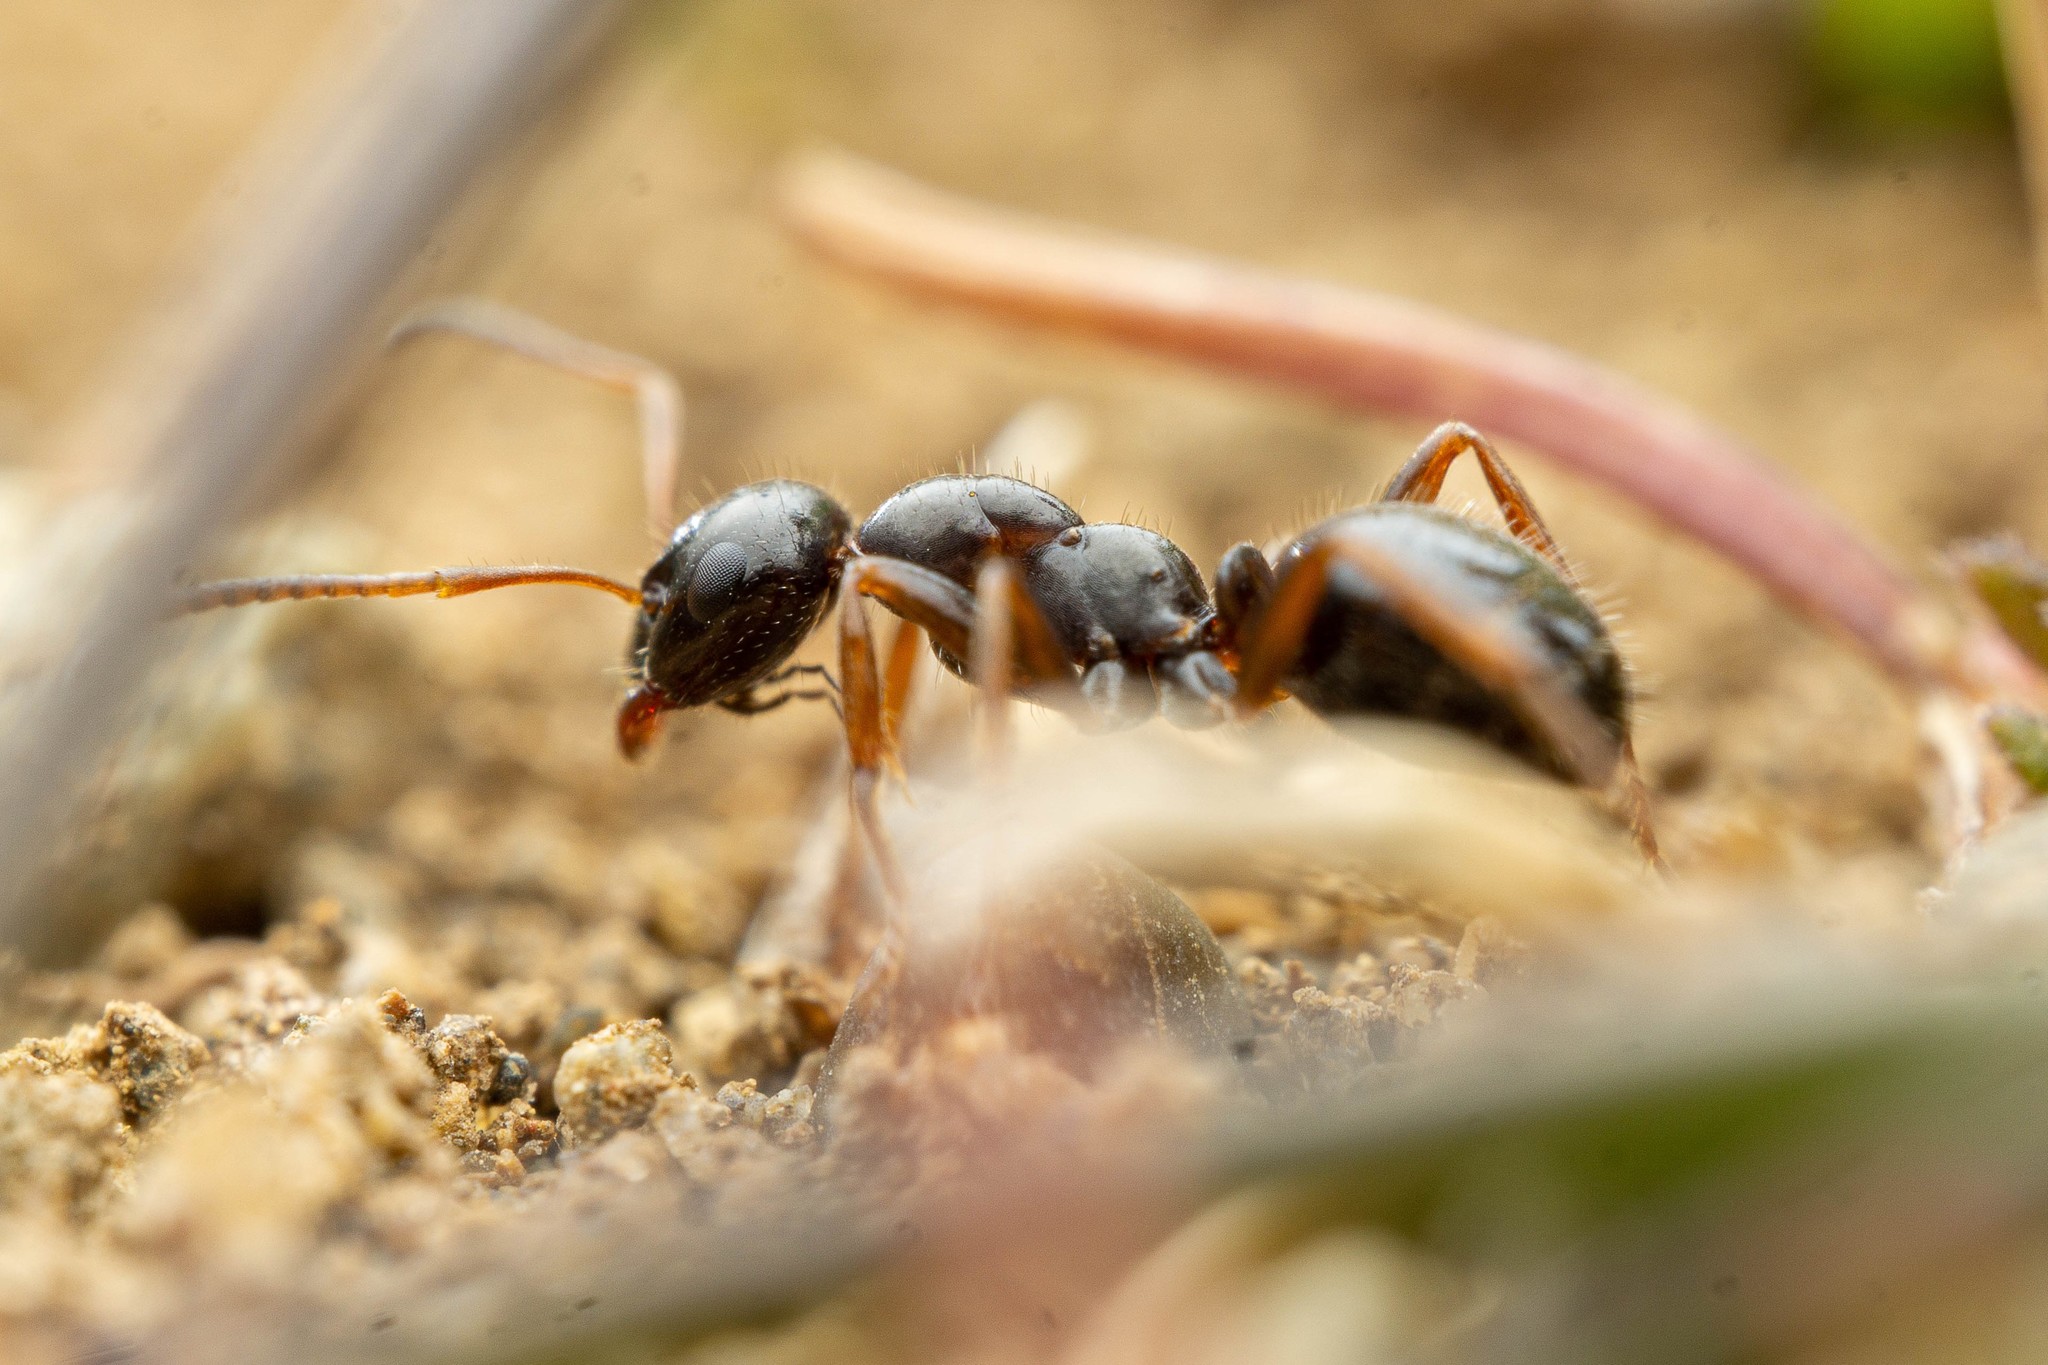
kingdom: Animalia
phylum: Arthropoda
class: Insecta
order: Hymenoptera
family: Formicidae
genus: Formica
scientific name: Formica lasioides
